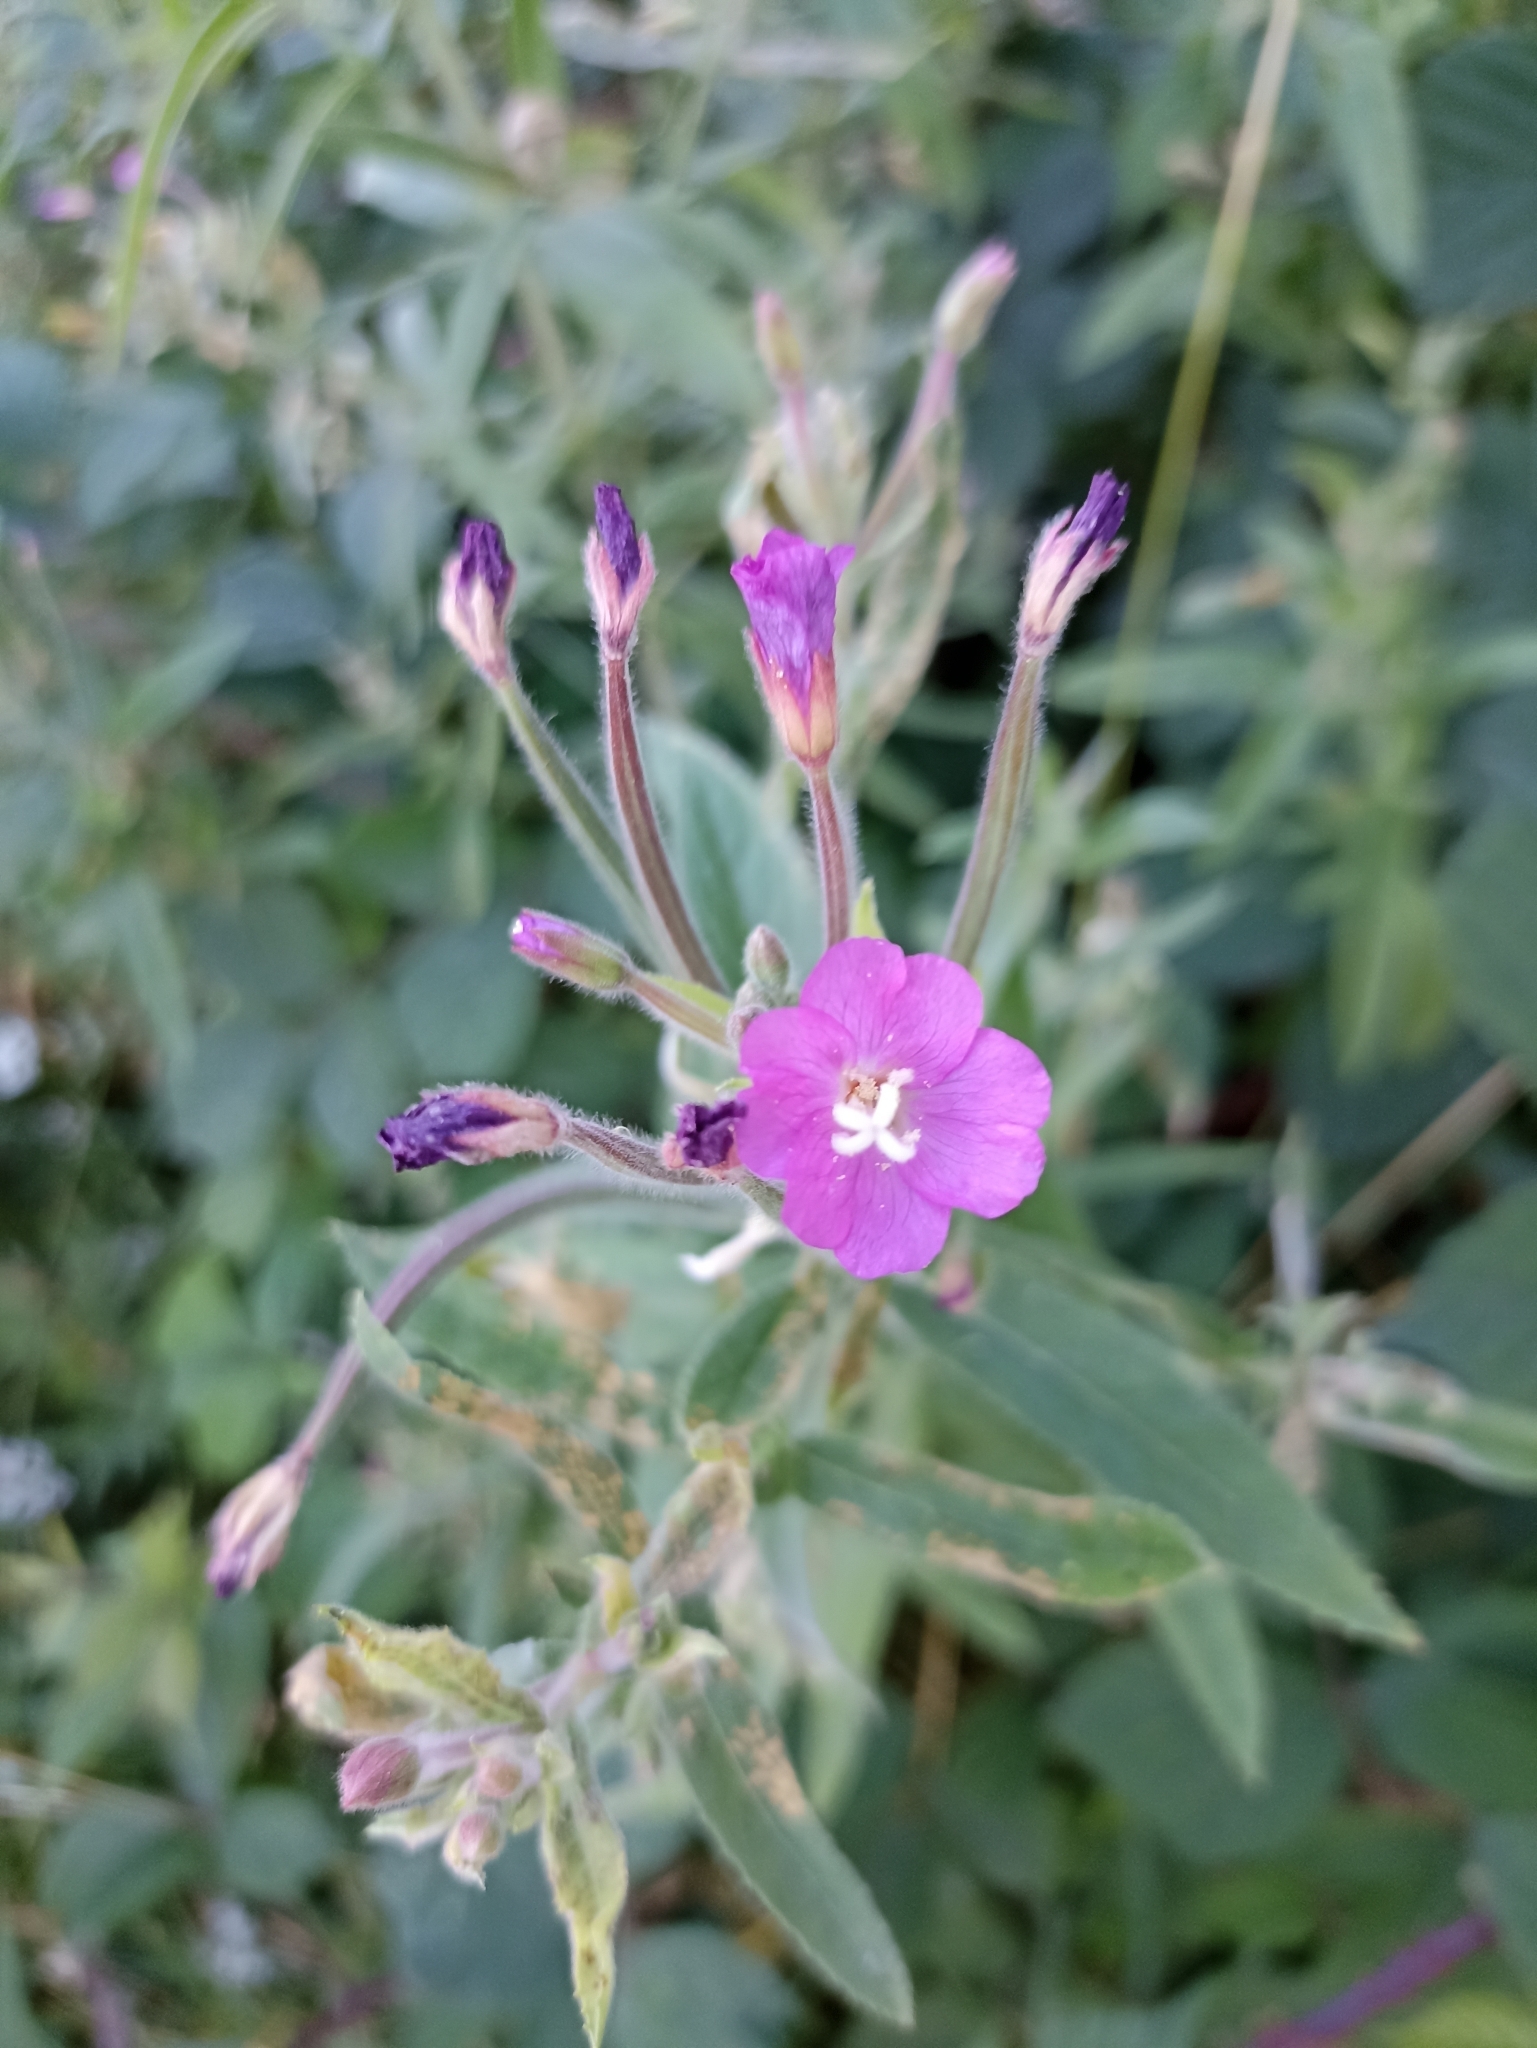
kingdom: Plantae
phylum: Tracheophyta
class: Magnoliopsida
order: Myrtales
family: Onagraceae
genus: Epilobium
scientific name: Epilobium hirsutum
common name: Great willowherb
